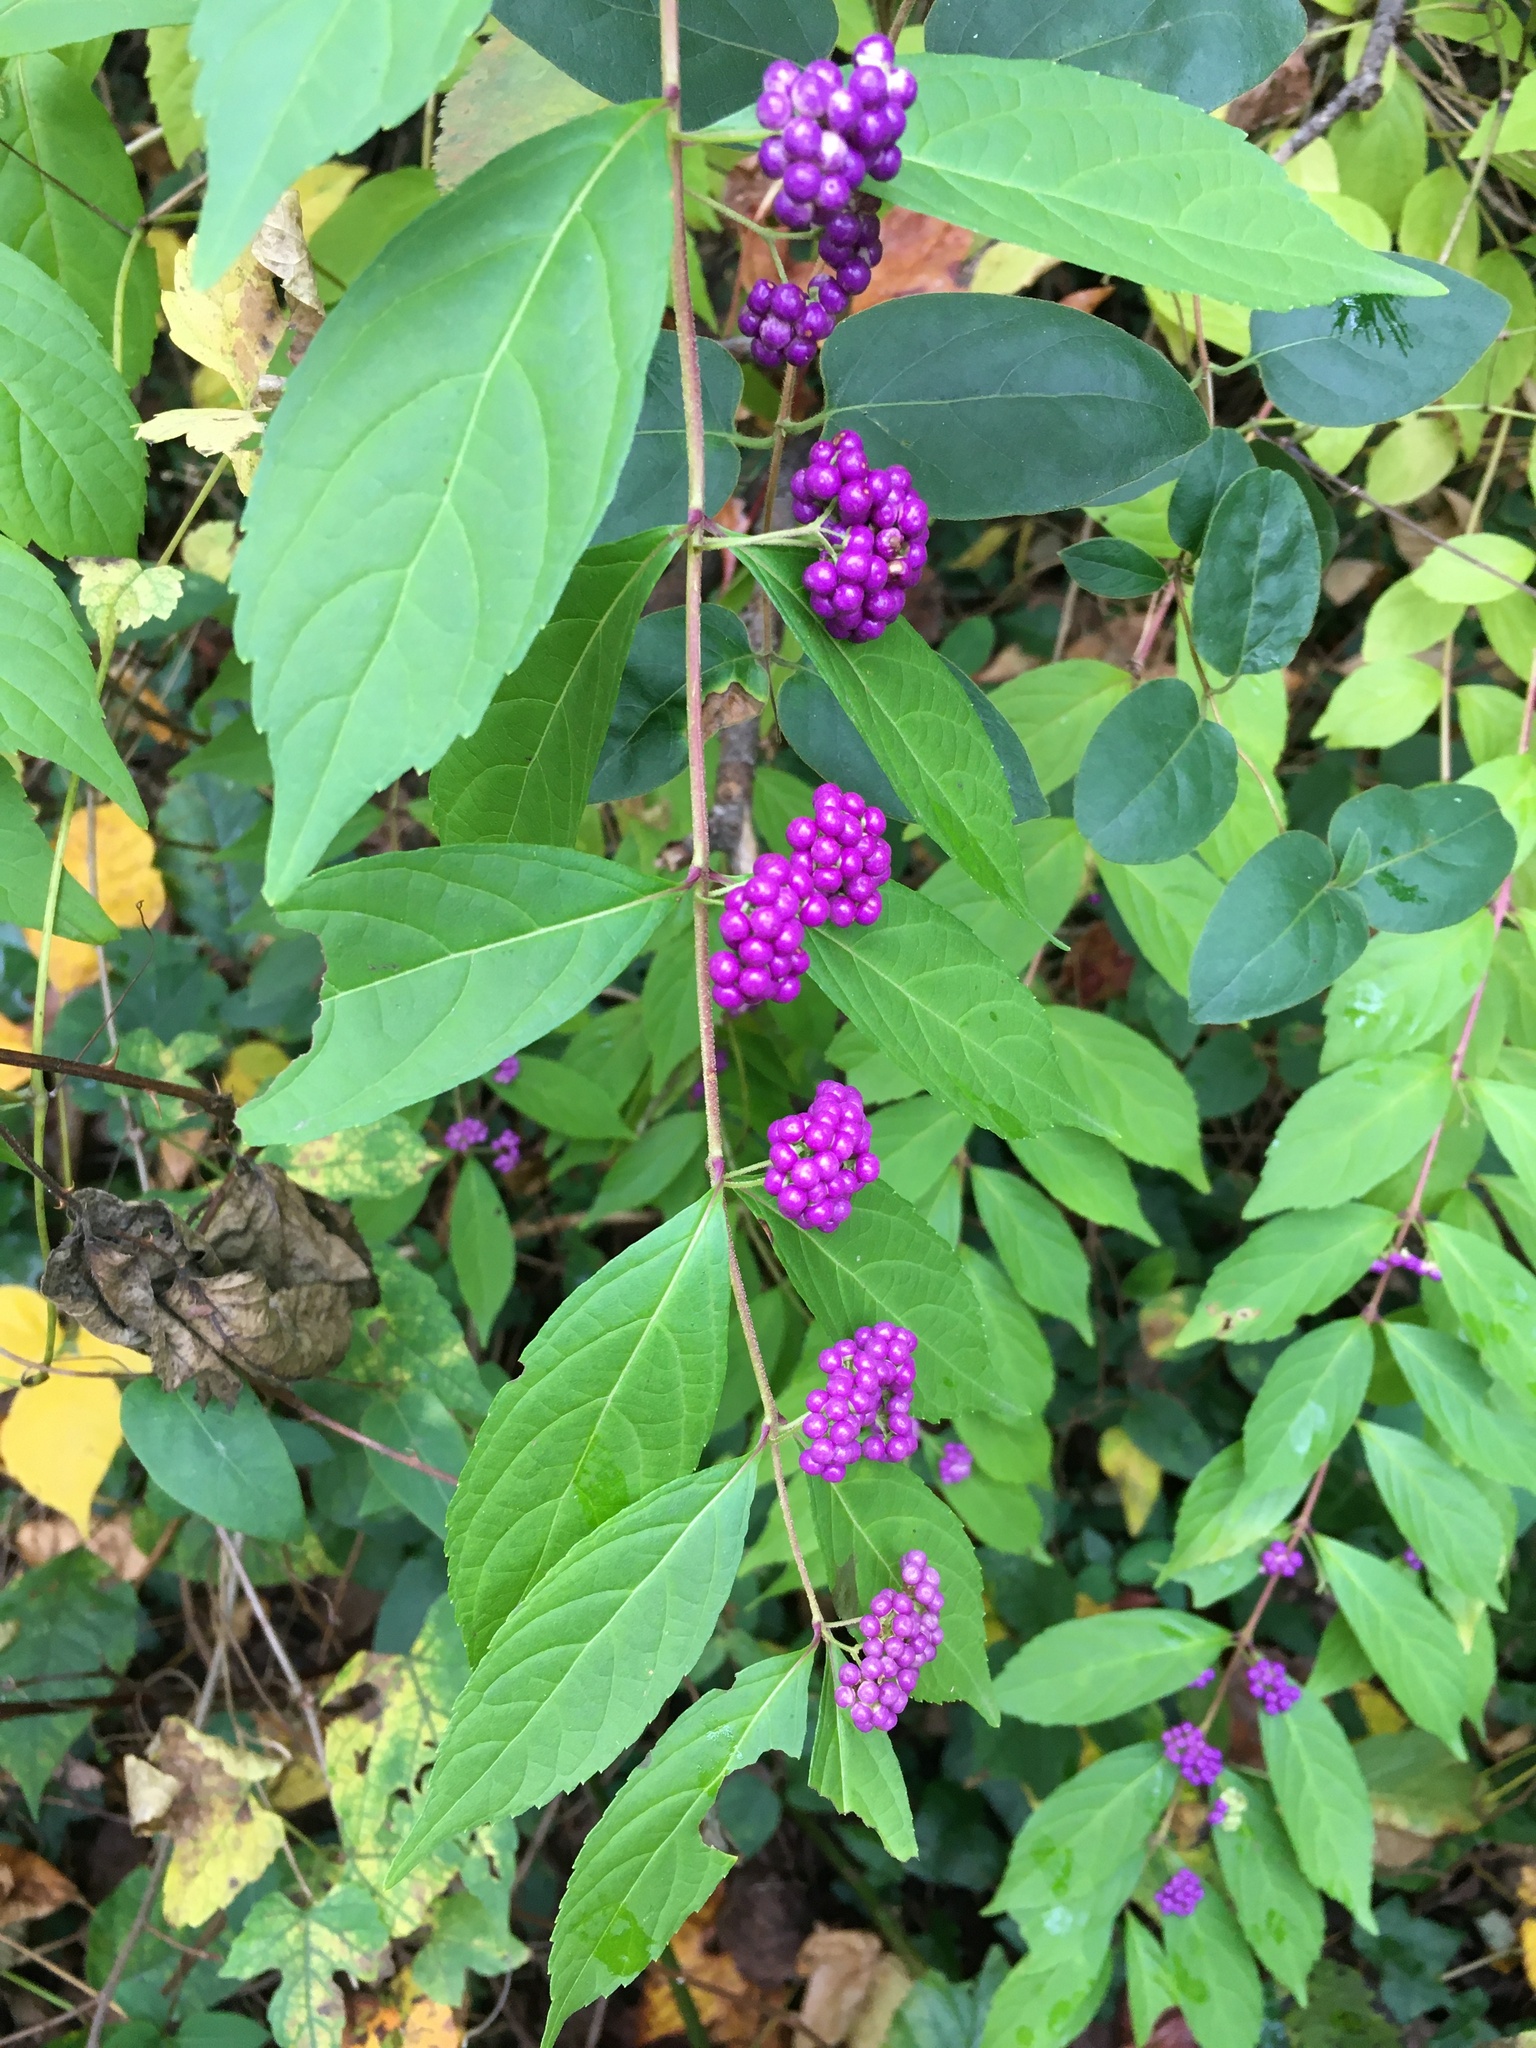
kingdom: Plantae
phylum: Tracheophyta
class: Magnoliopsida
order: Lamiales
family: Lamiaceae
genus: Callicarpa
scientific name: Callicarpa dichotoma
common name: Purple beauty-berry
